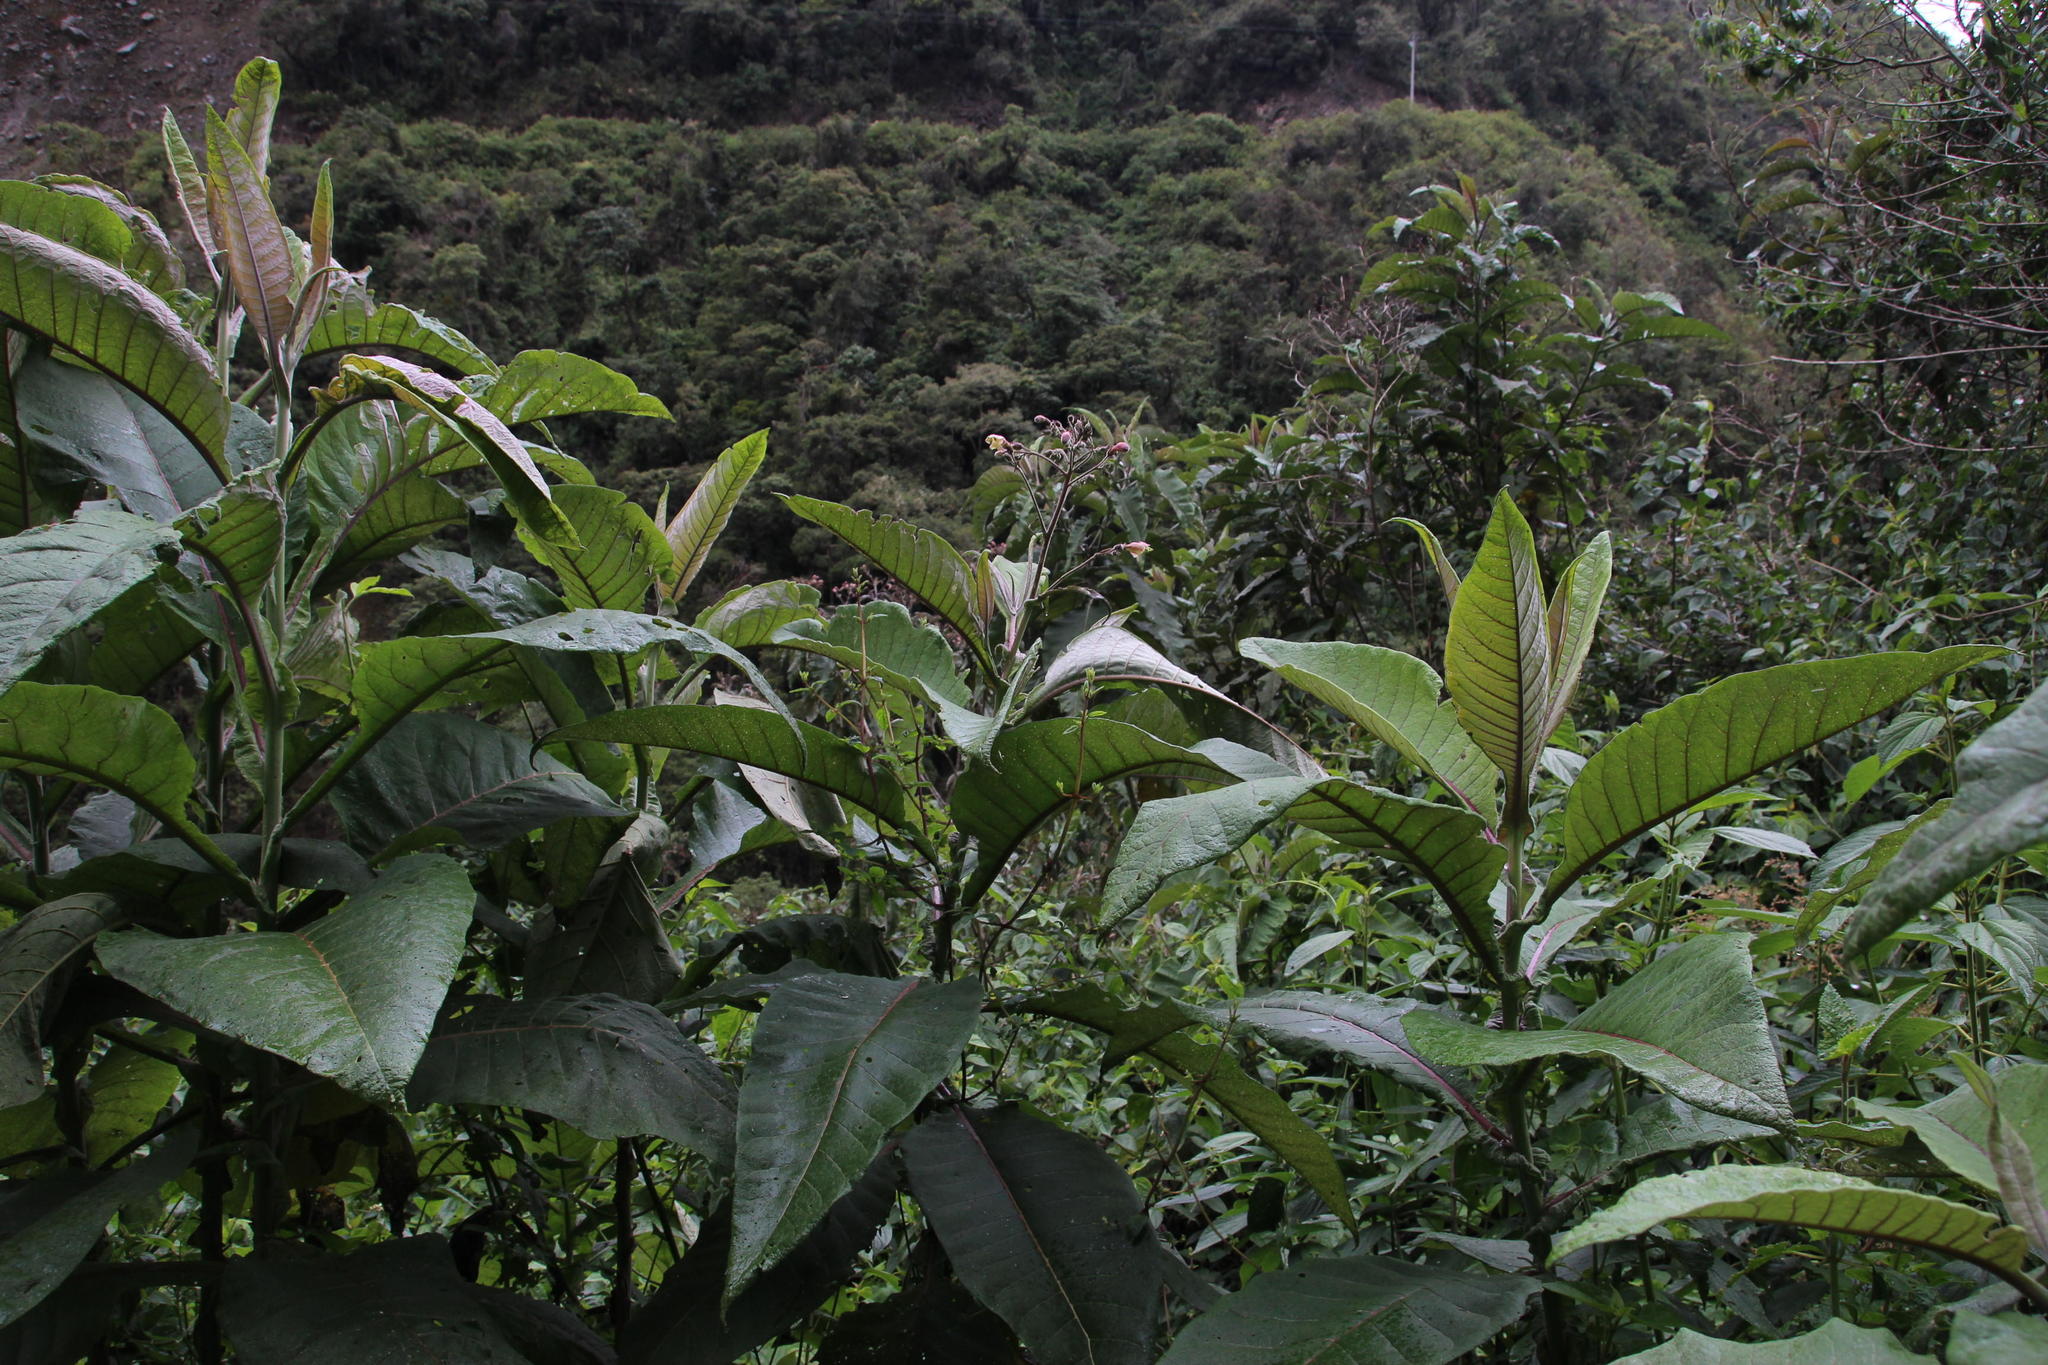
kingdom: Plantae
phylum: Tracheophyta
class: Magnoliopsida
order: Solanales
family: Solanaceae
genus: Nicotiana
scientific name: Nicotiana tomentosa
